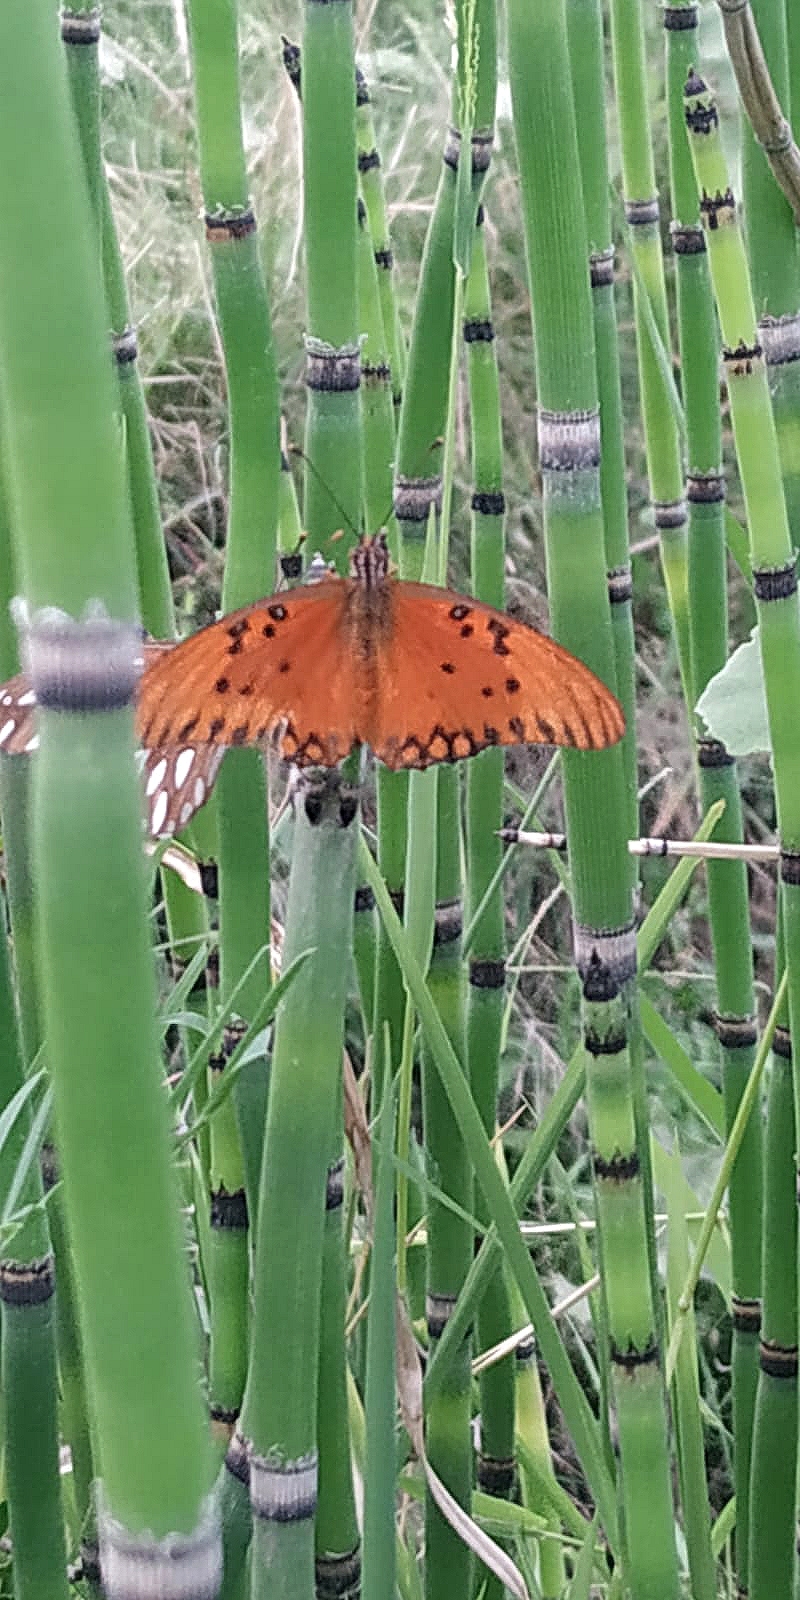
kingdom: Animalia
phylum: Arthropoda
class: Insecta
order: Lepidoptera
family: Nymphalidae
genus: Dione
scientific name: Dione vanillae
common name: Gulf fritillary
